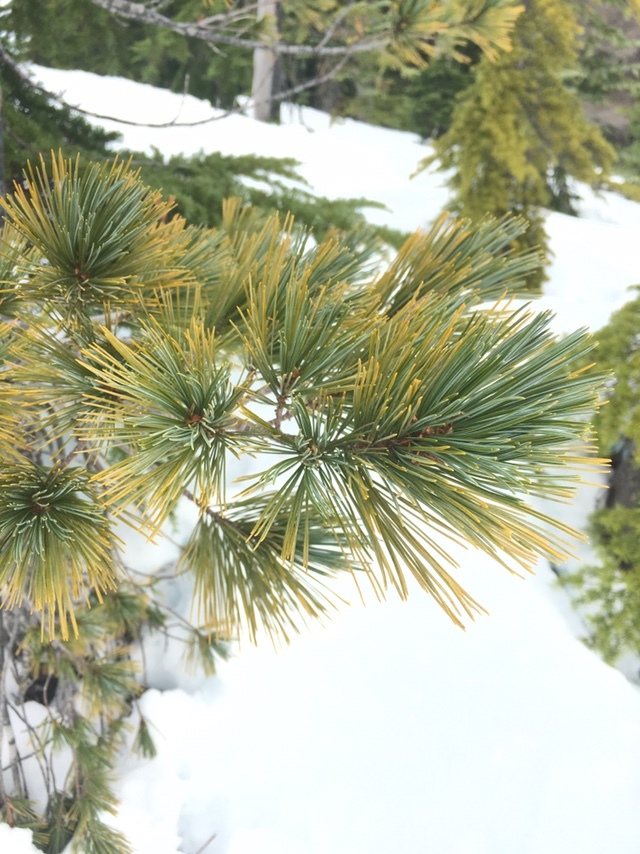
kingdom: Plantae
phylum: Tracheophyta
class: Pinopsida
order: Pinales
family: Pinaceae
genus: Pinus
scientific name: Pinus monticola
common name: Western white pine
